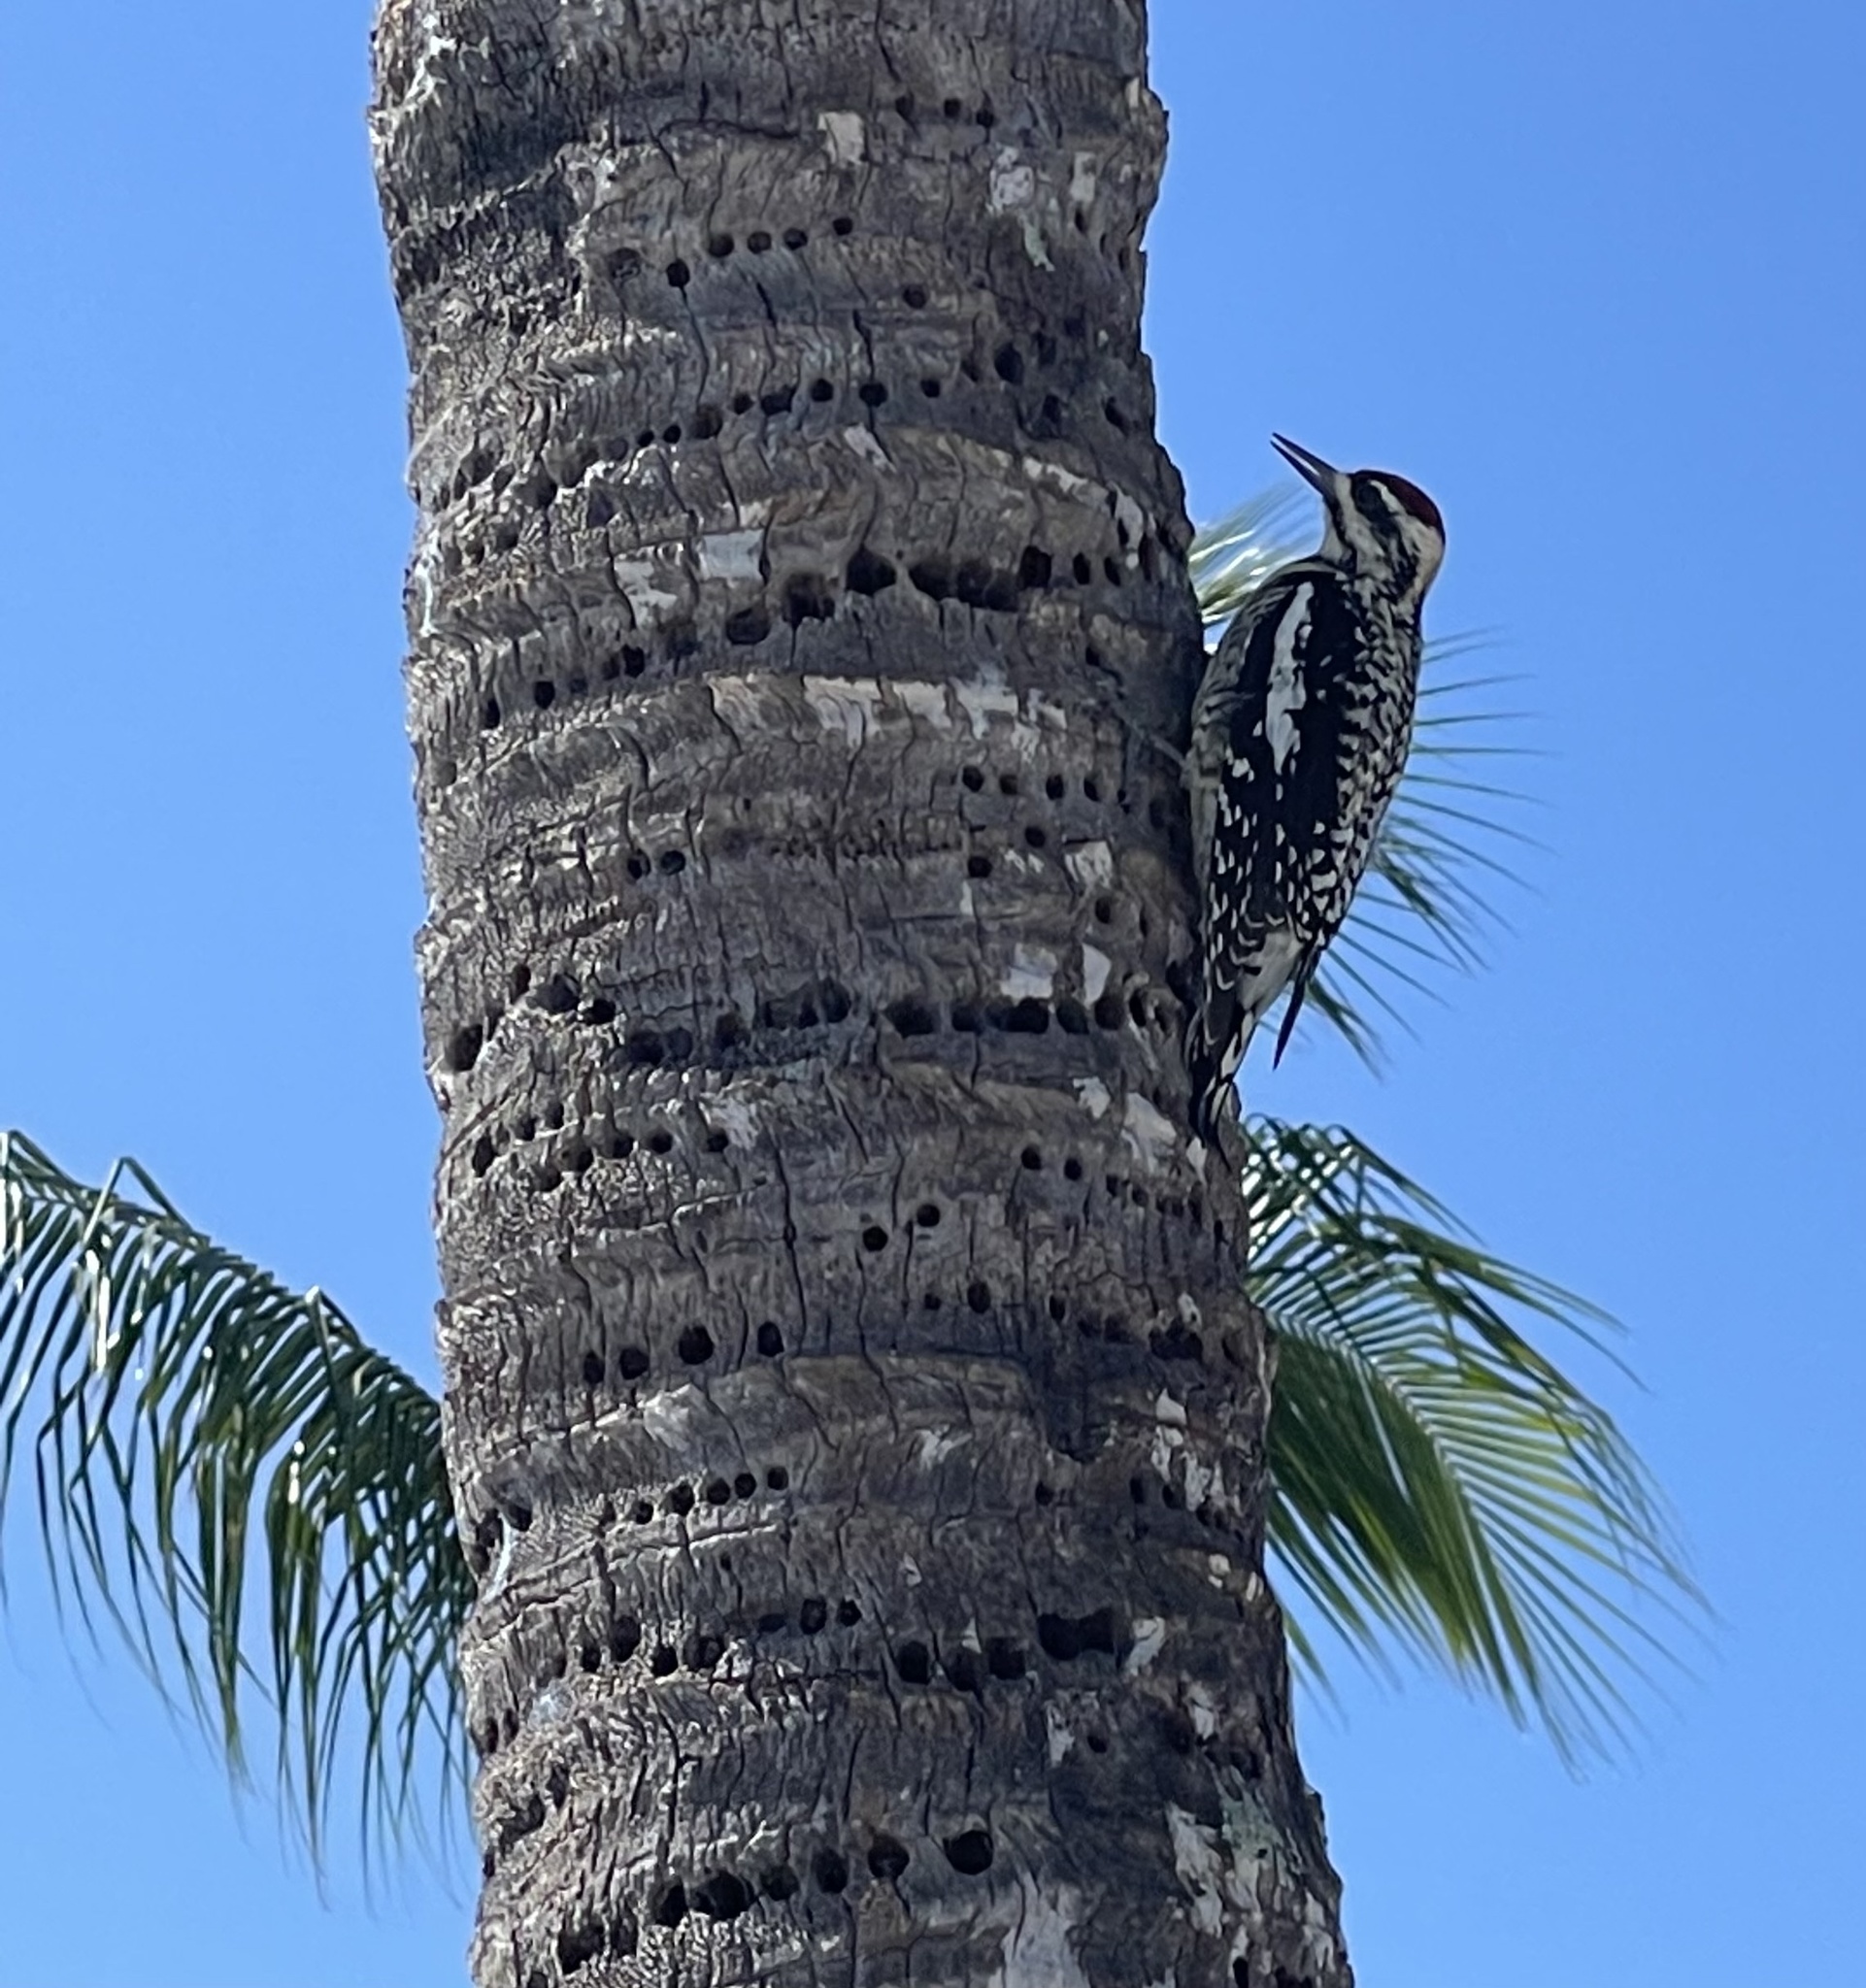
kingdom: Animalia
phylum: Chordata
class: Aves
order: Piciformes
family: Picidae
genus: Sphyrapicus
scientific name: Sphyrapicus varius
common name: Yellow-bellied sapsucker
